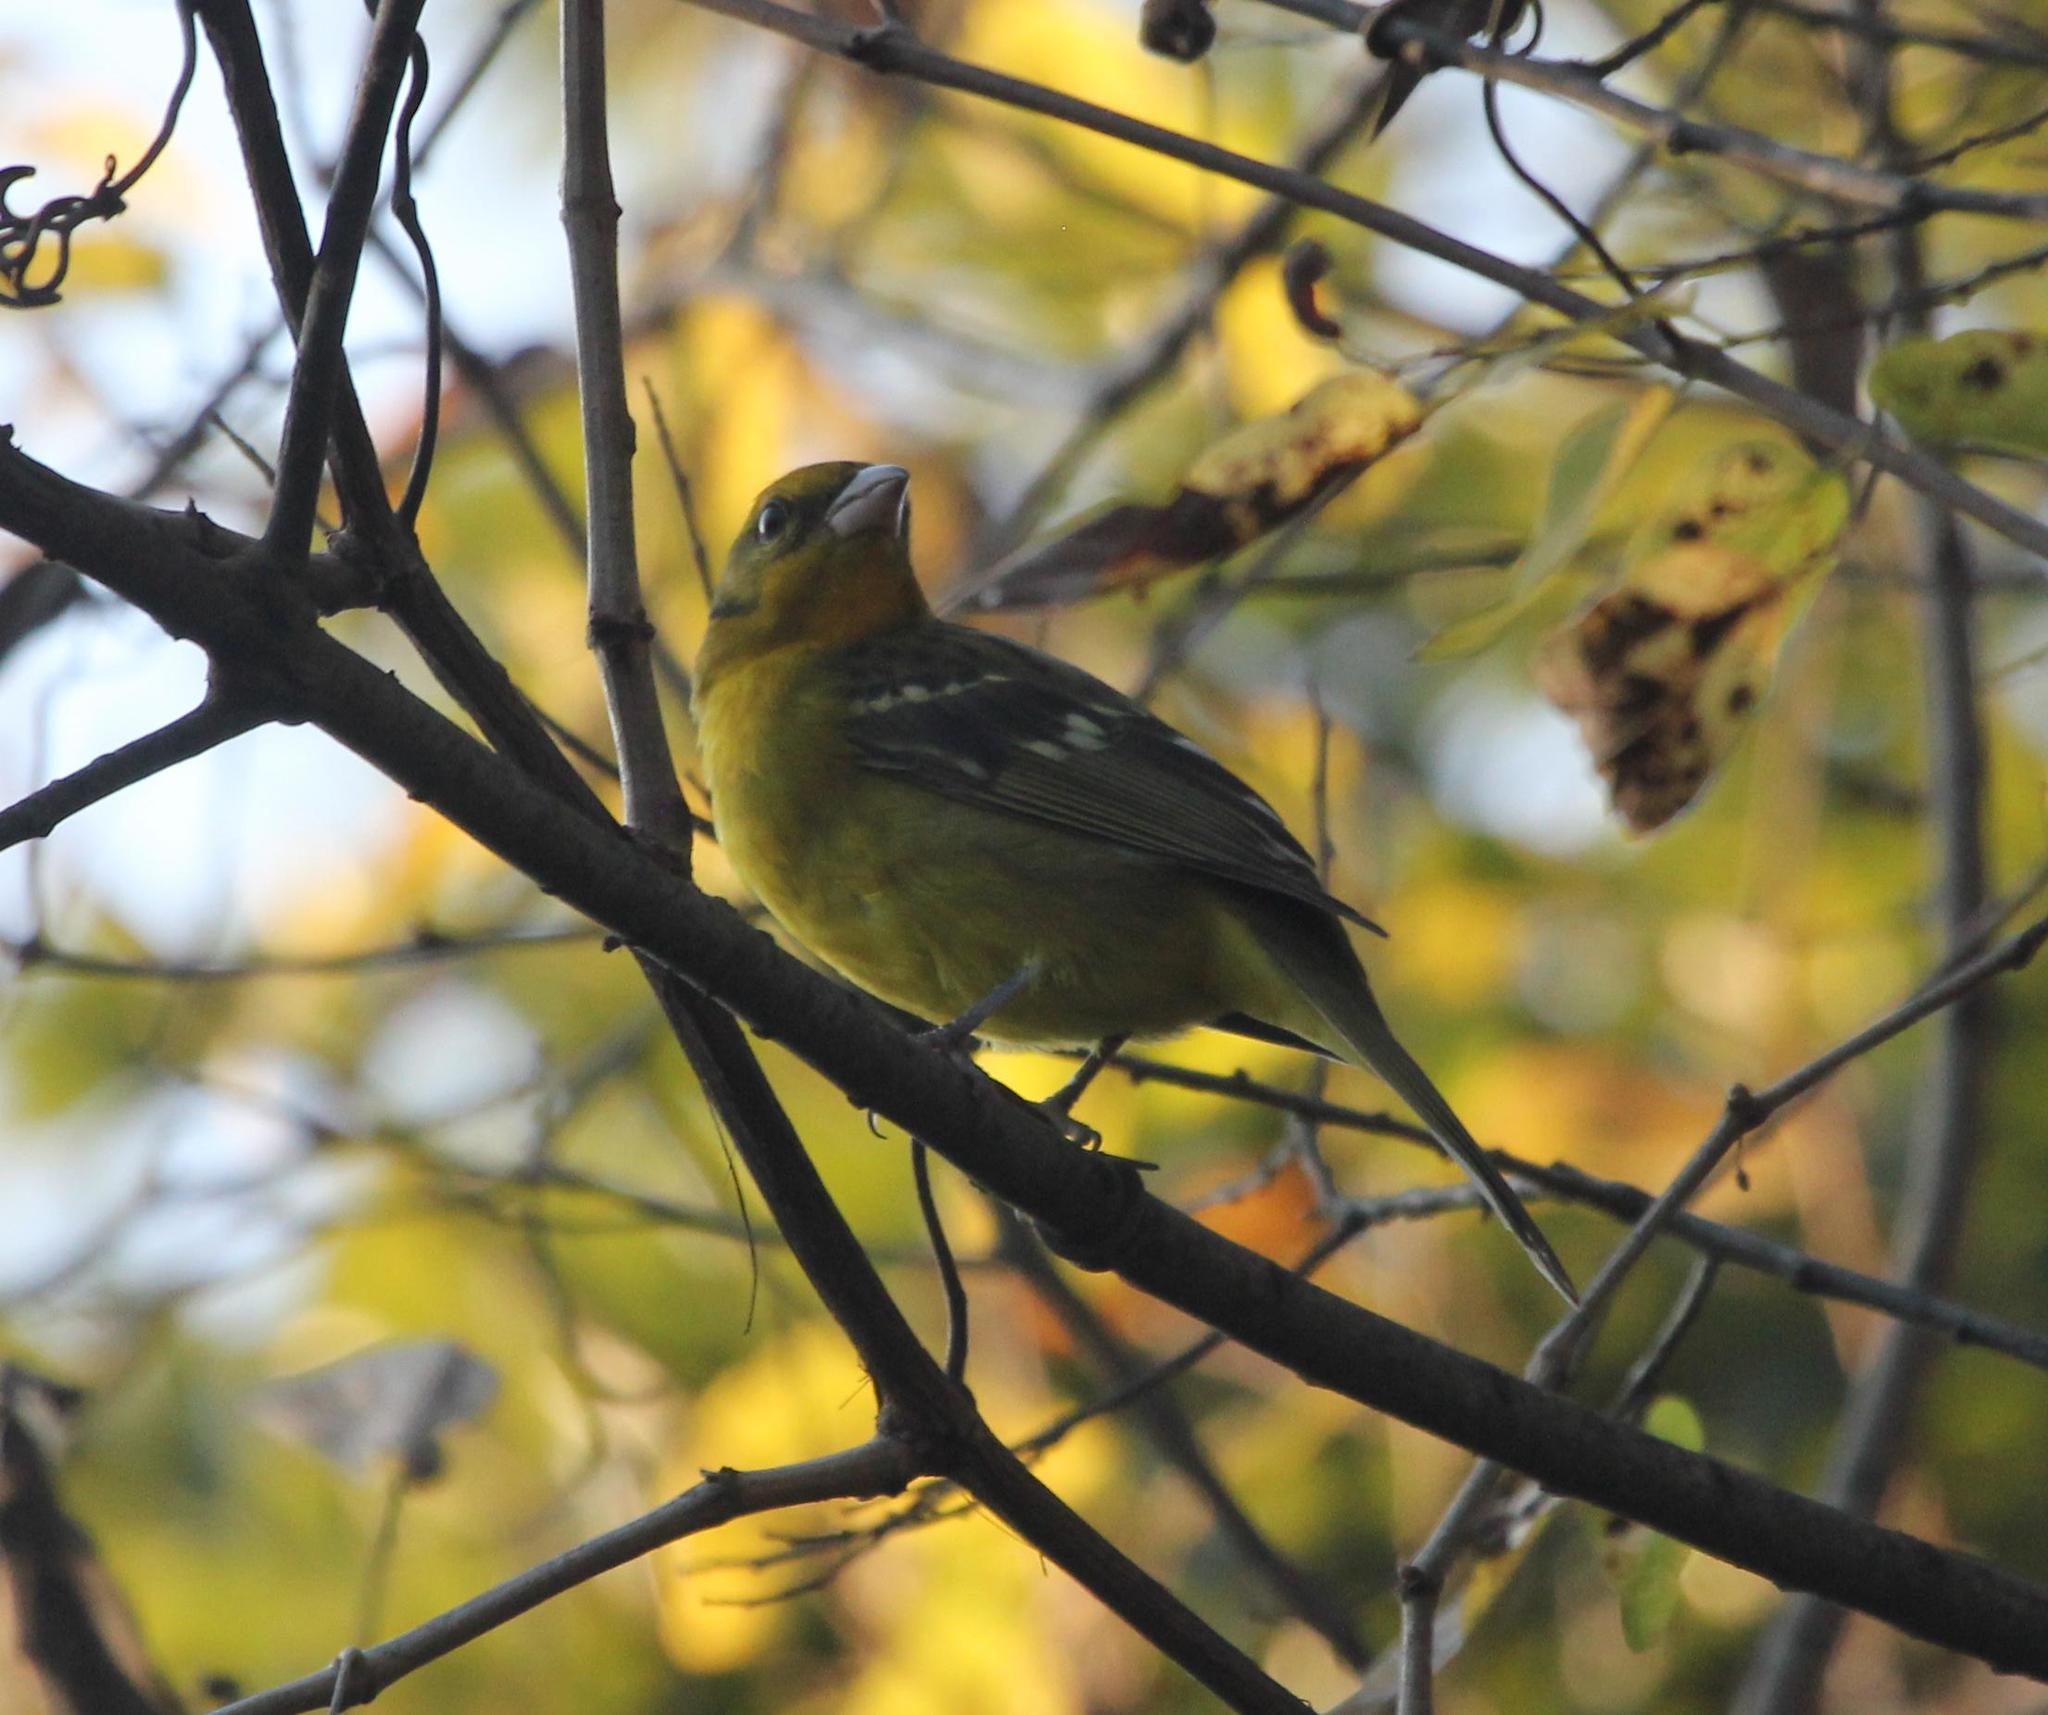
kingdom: Animalia
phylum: Chordata
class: Aves
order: Passeriformes
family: Cardinalidae
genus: Piranga
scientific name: Piranga bidentata
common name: Flame-colored tanager
